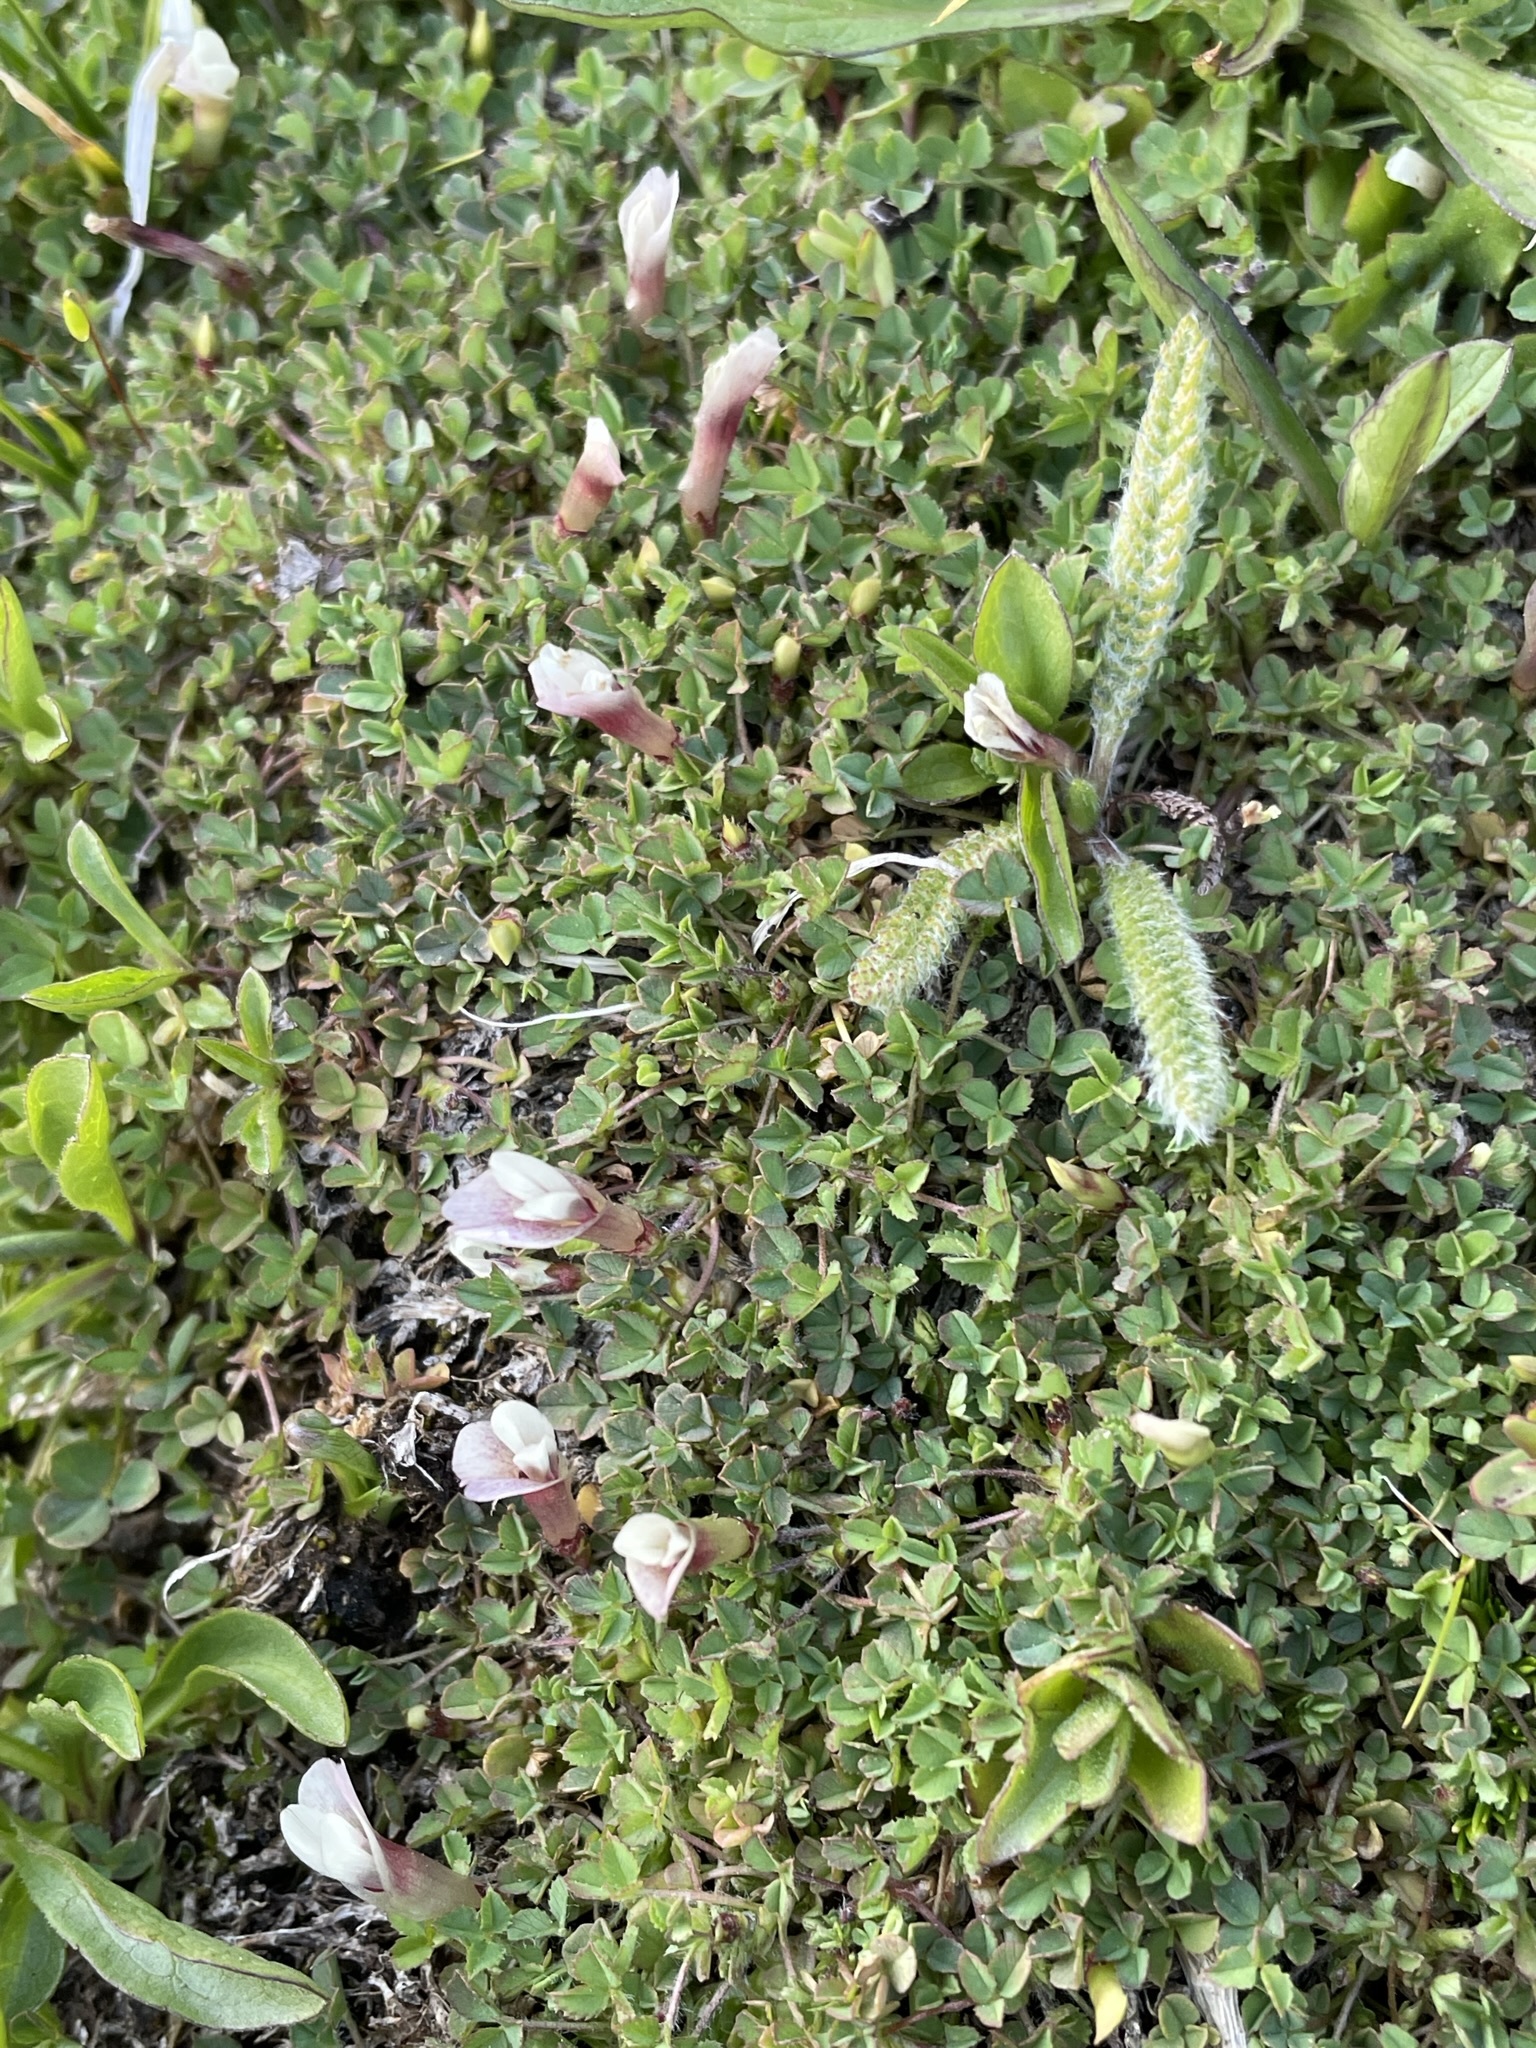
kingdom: Plantae
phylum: Tracheophyta
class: Magnoliopsida
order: Fabales
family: Fabaceae
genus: Trifolium
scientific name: Trifolium monanthum
